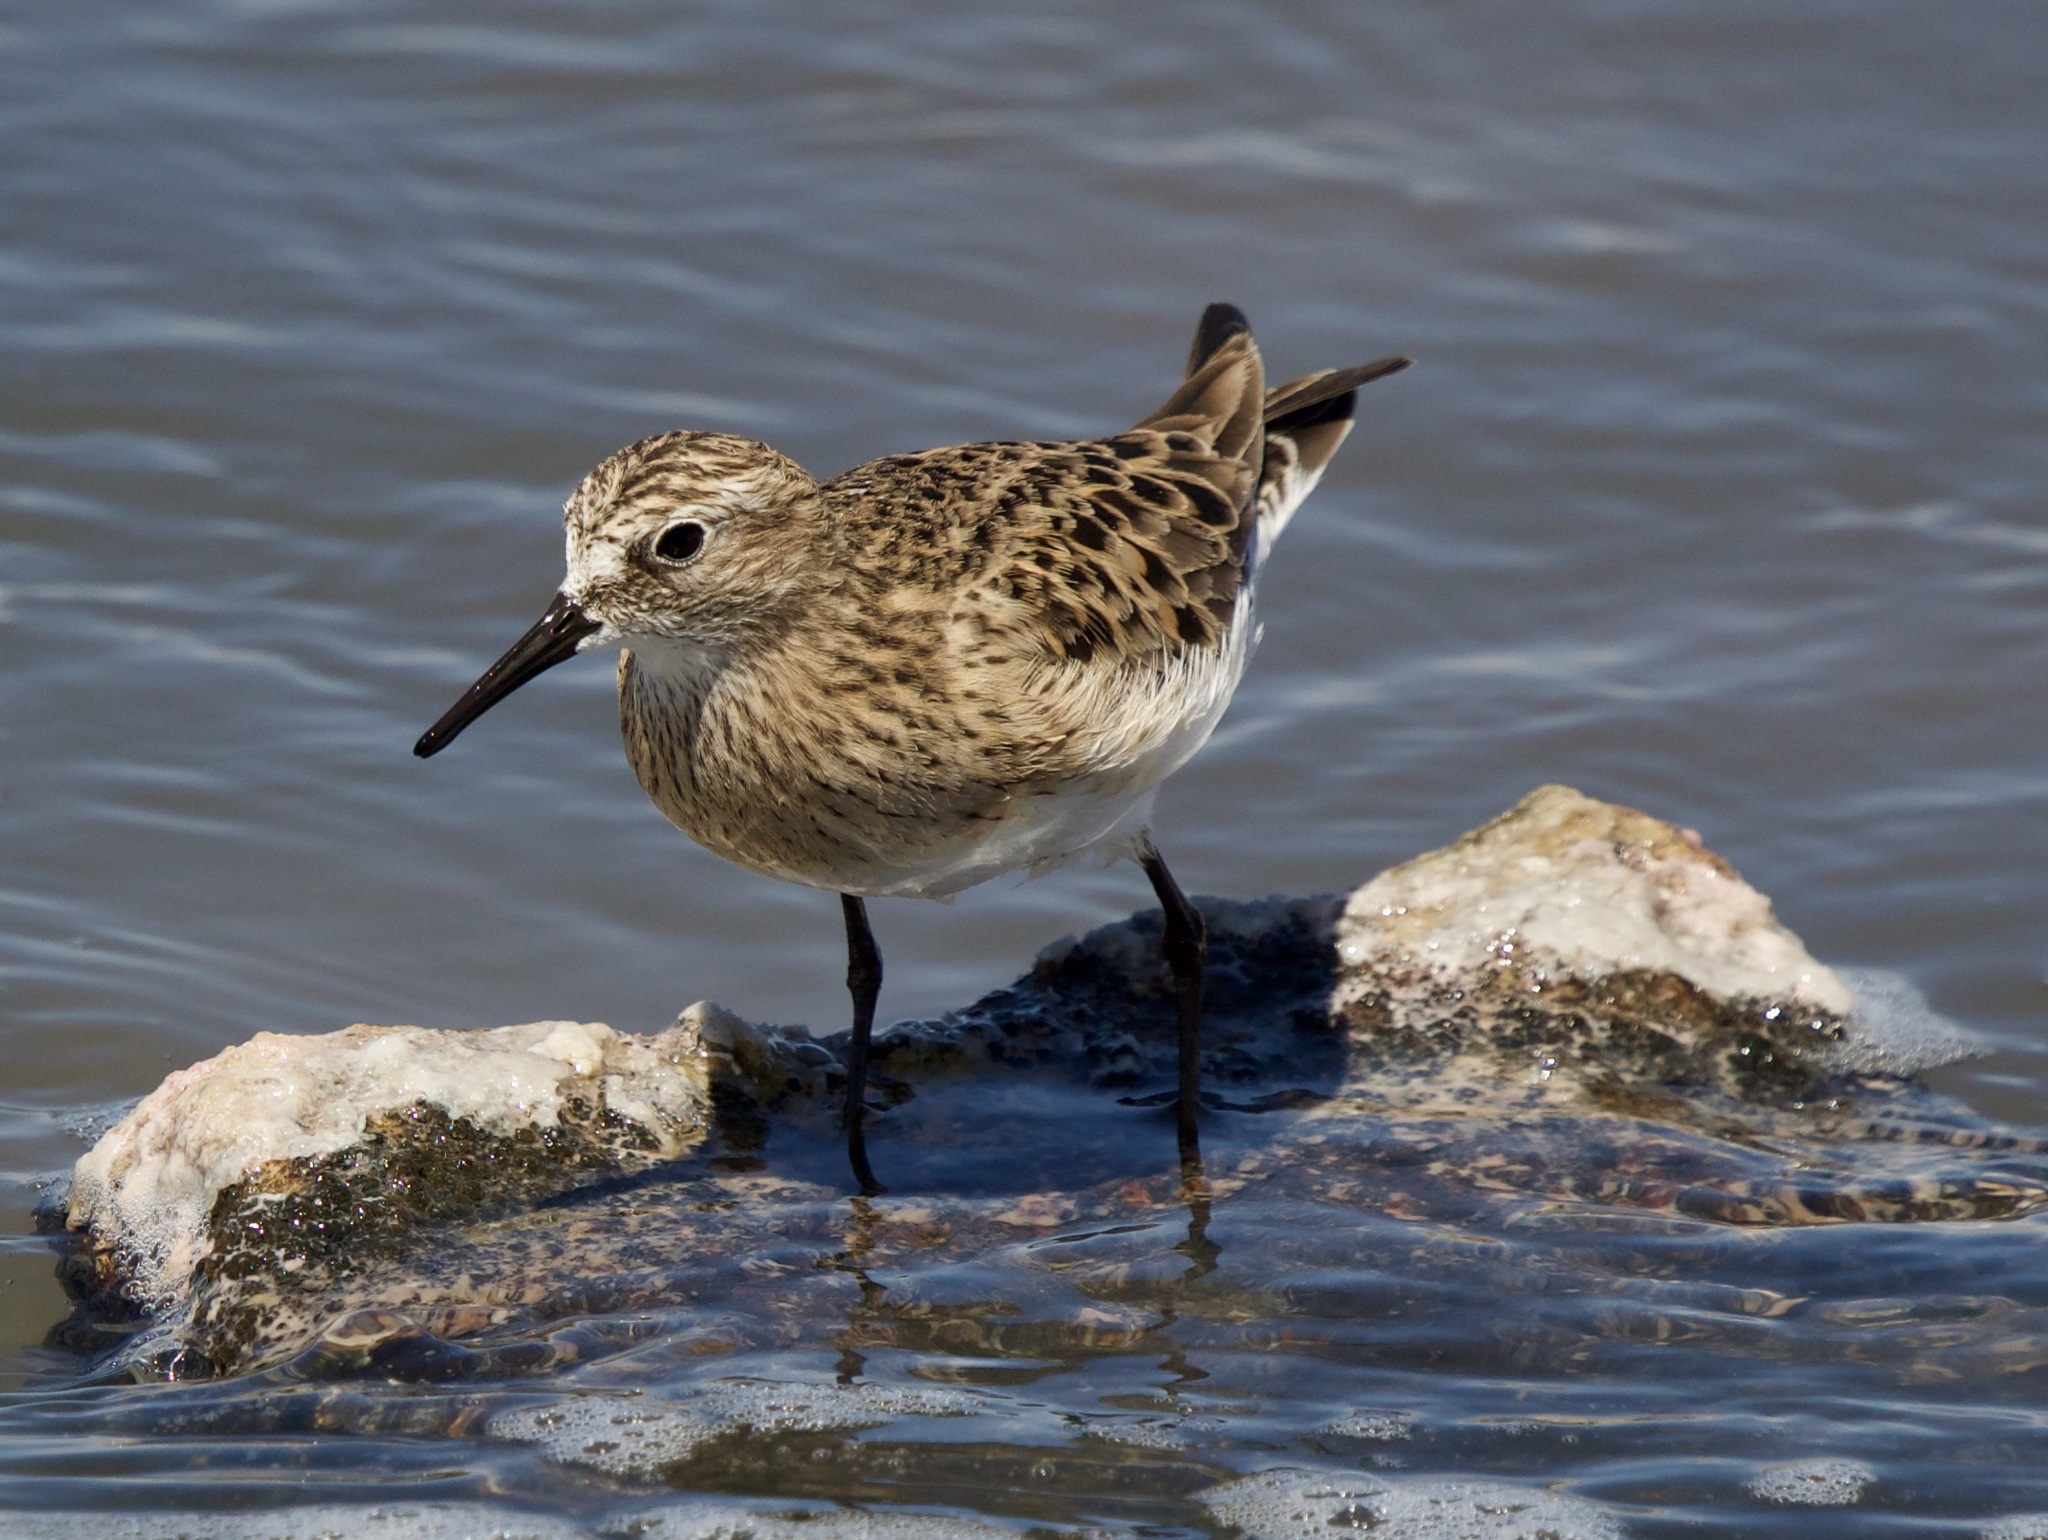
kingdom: Animalia
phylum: Chordata
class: Aves
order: Charadriiformes
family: Scolopacidae
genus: Calidris
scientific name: Calidris bairdii
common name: Baird's sandpiper
